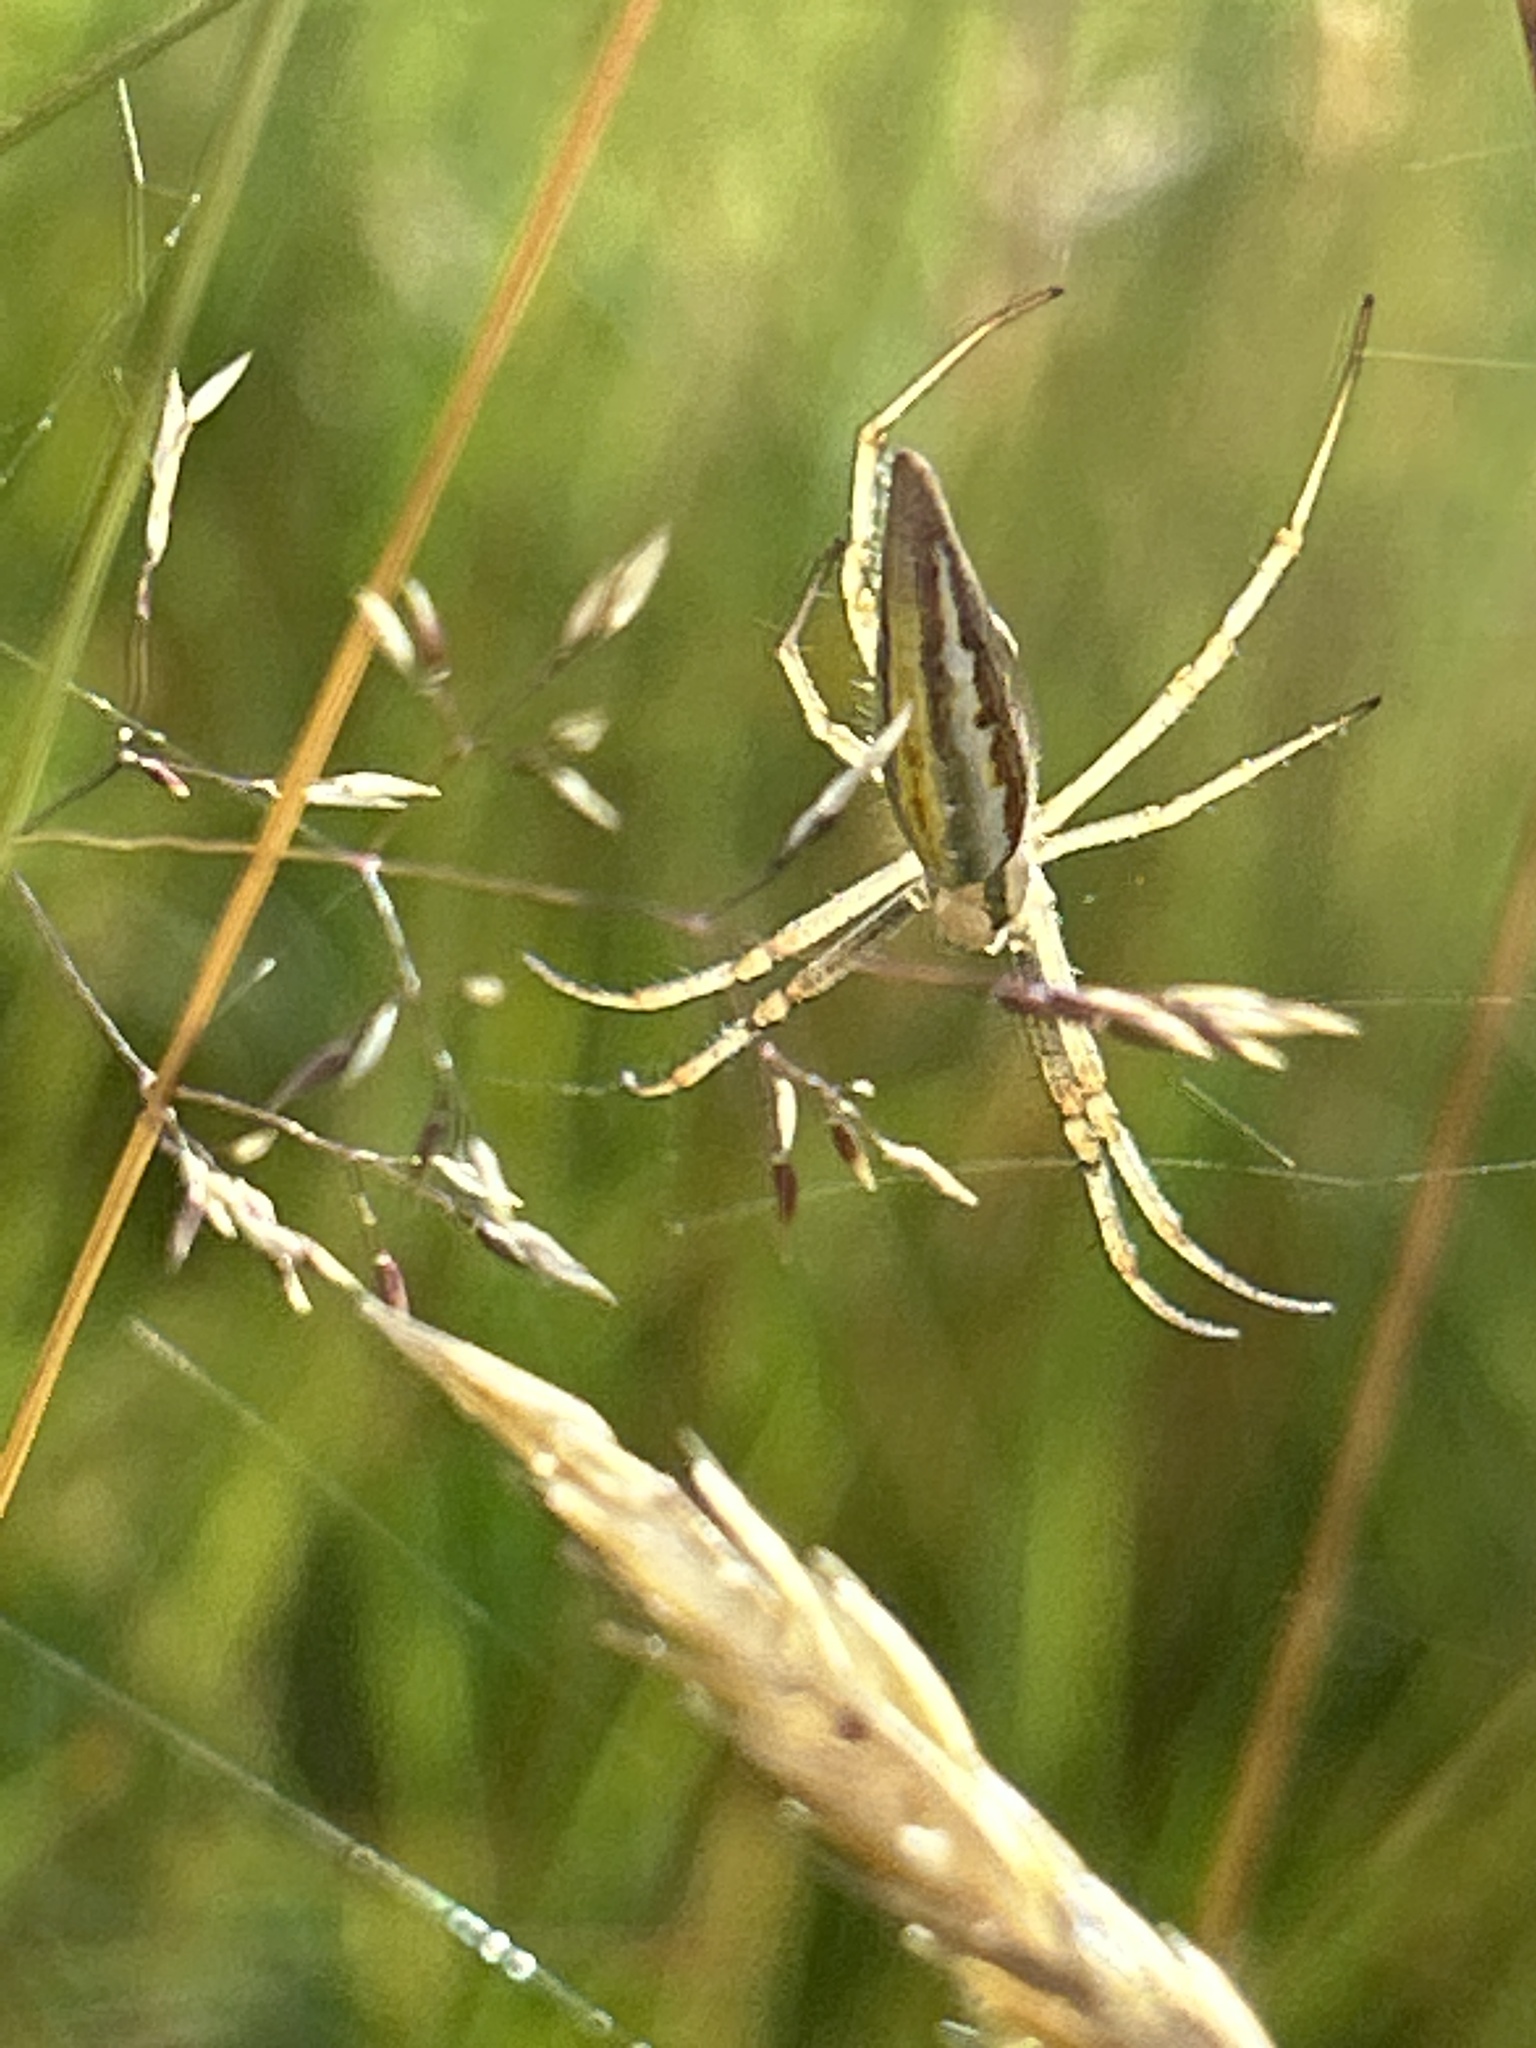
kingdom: Animalia
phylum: Arthropoda
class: Arachnida
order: Araneae
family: Araneidae
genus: Argiope
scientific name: Argiope protensa
